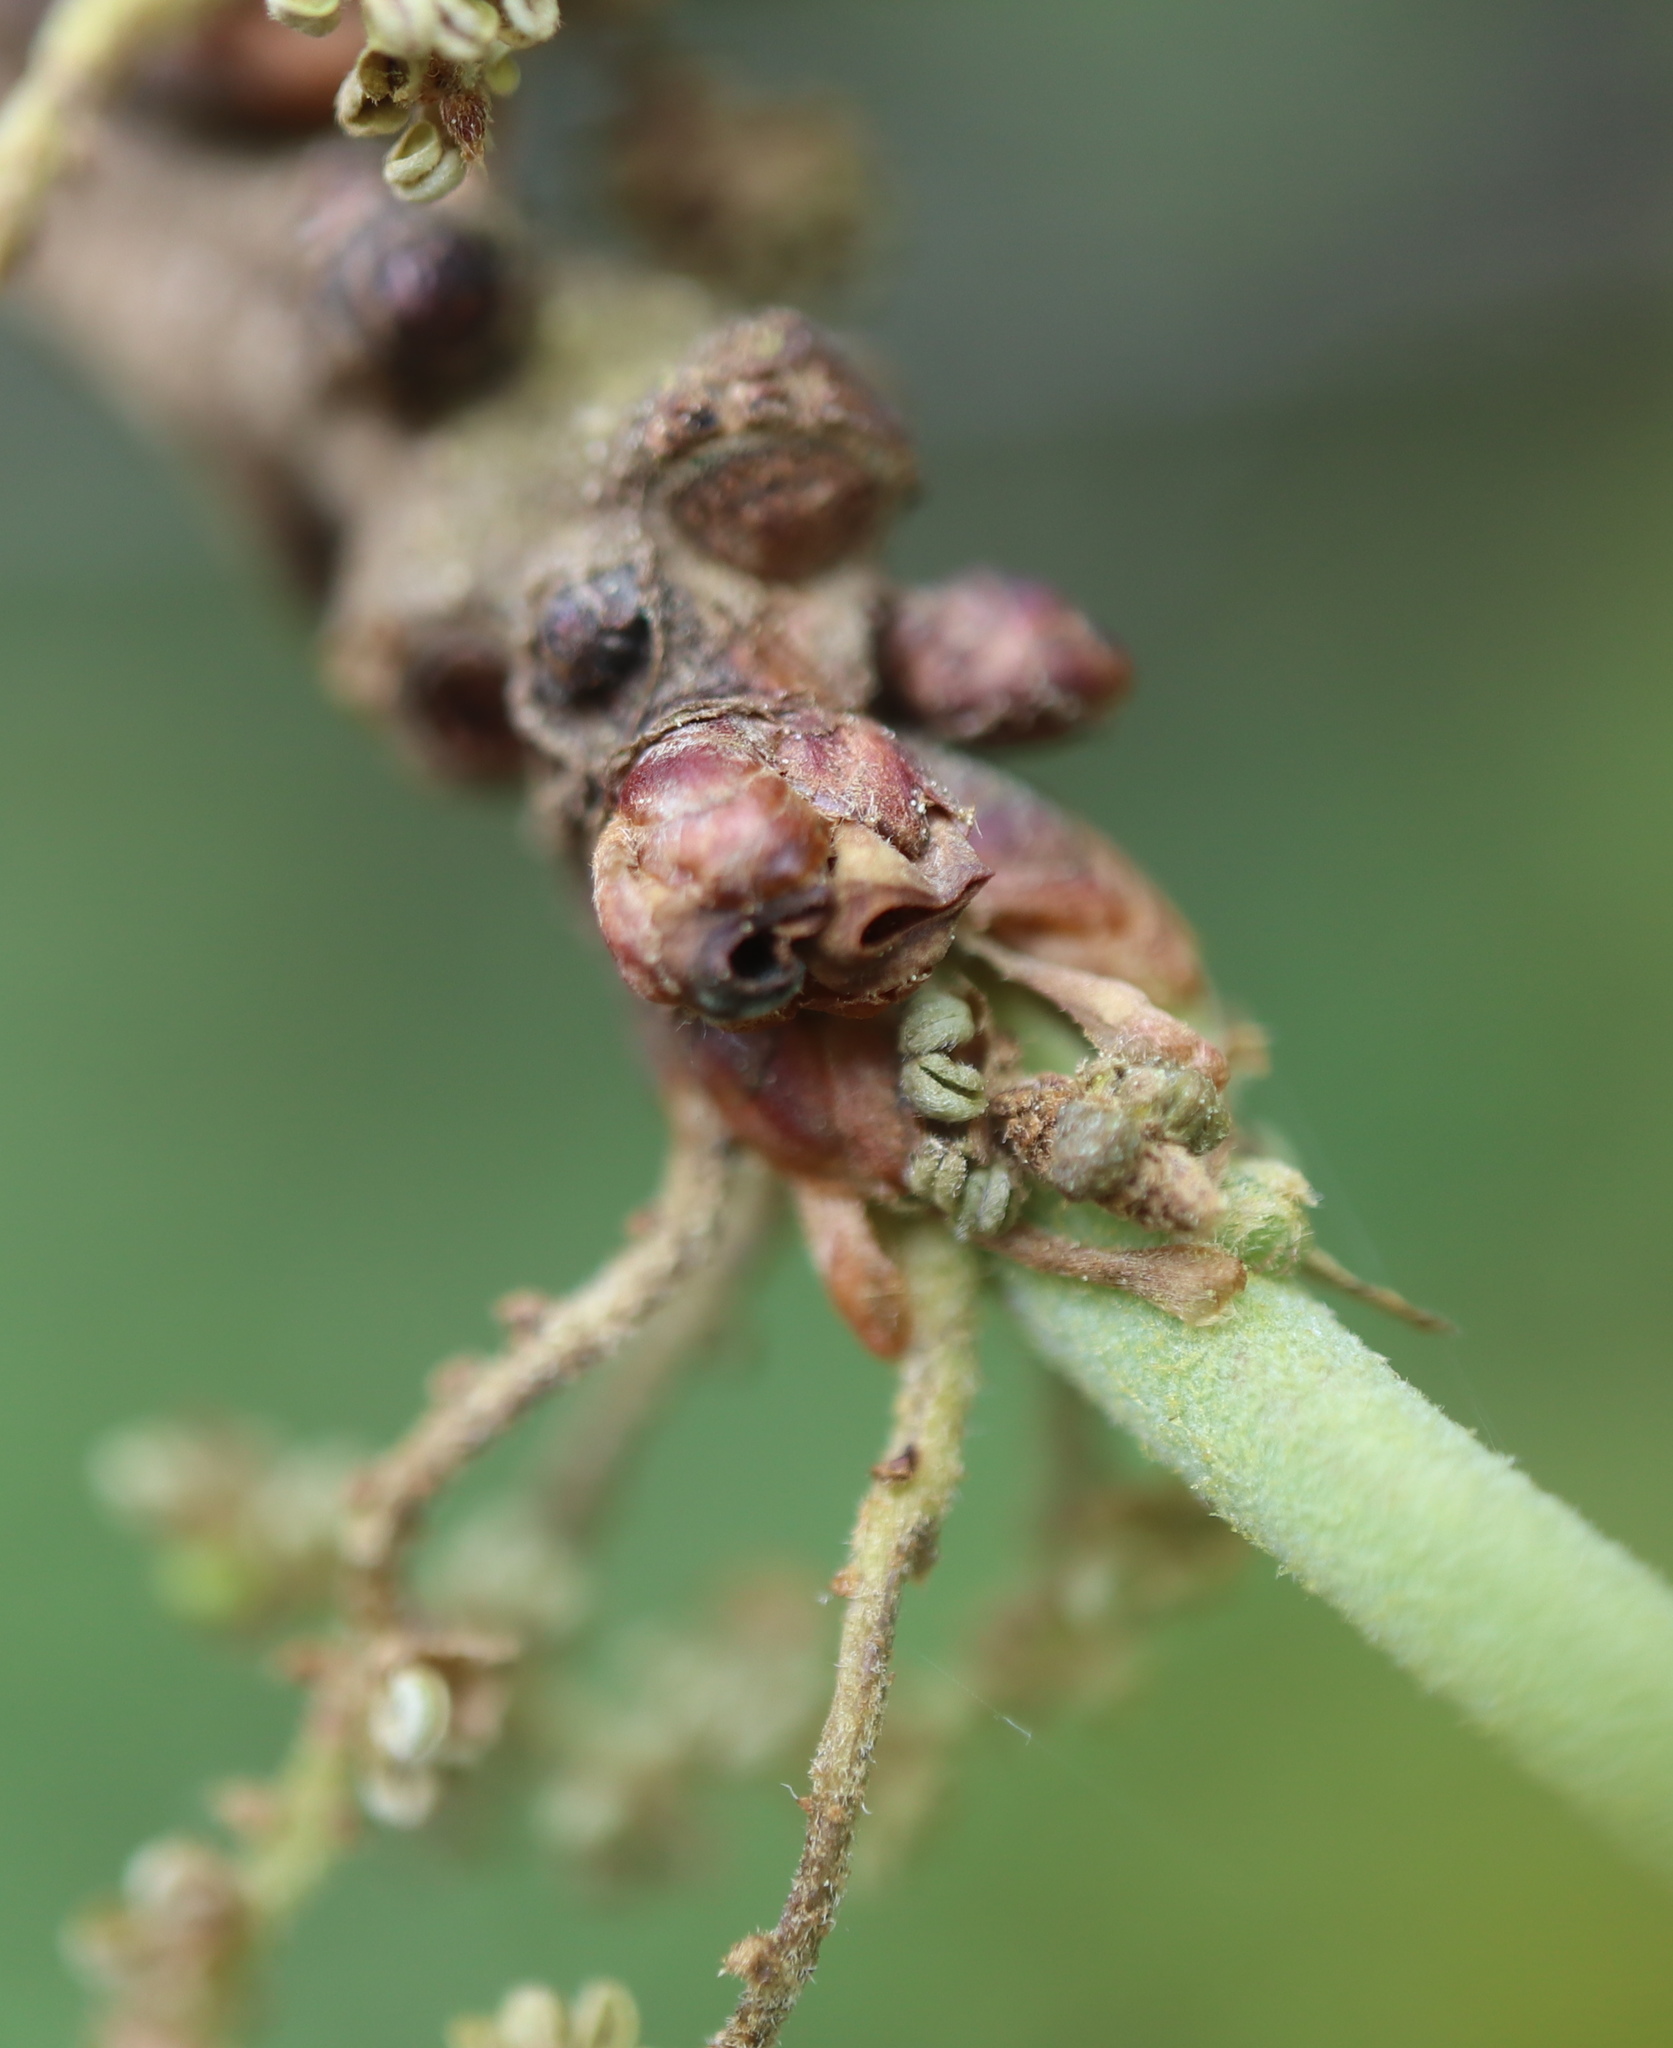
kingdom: Animalia
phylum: Arthropoda
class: Insecta
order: Hymenoptera
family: Cynipidae
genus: Neuroterus
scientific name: Neuroterus
